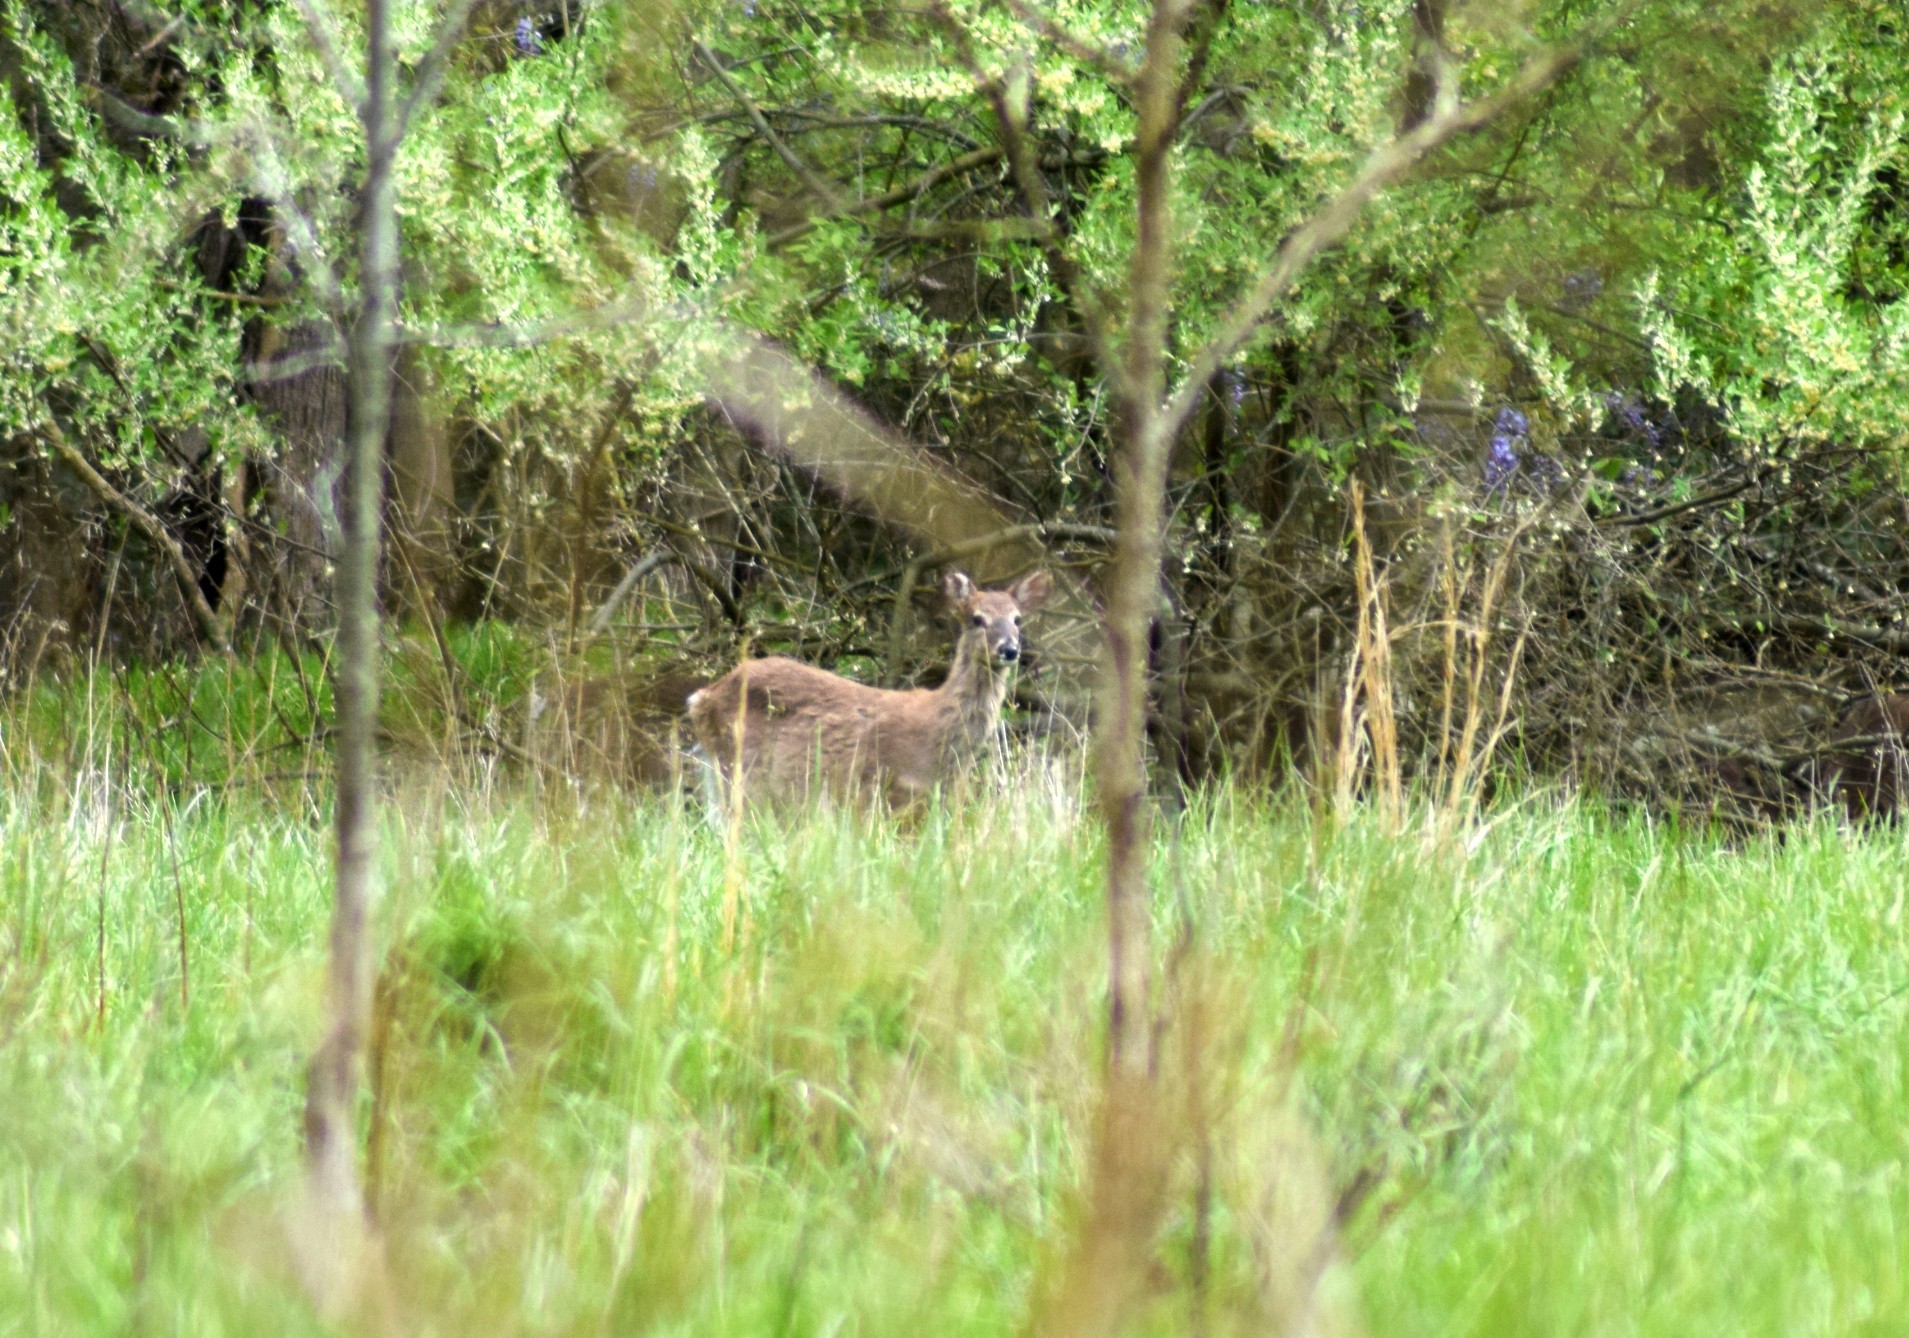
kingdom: Animalia
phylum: Chordata
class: Mammalia
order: Artiodactyla
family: Cervidae
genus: Odocoileus
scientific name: Odocoileus virginianus
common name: White-tailed deer
